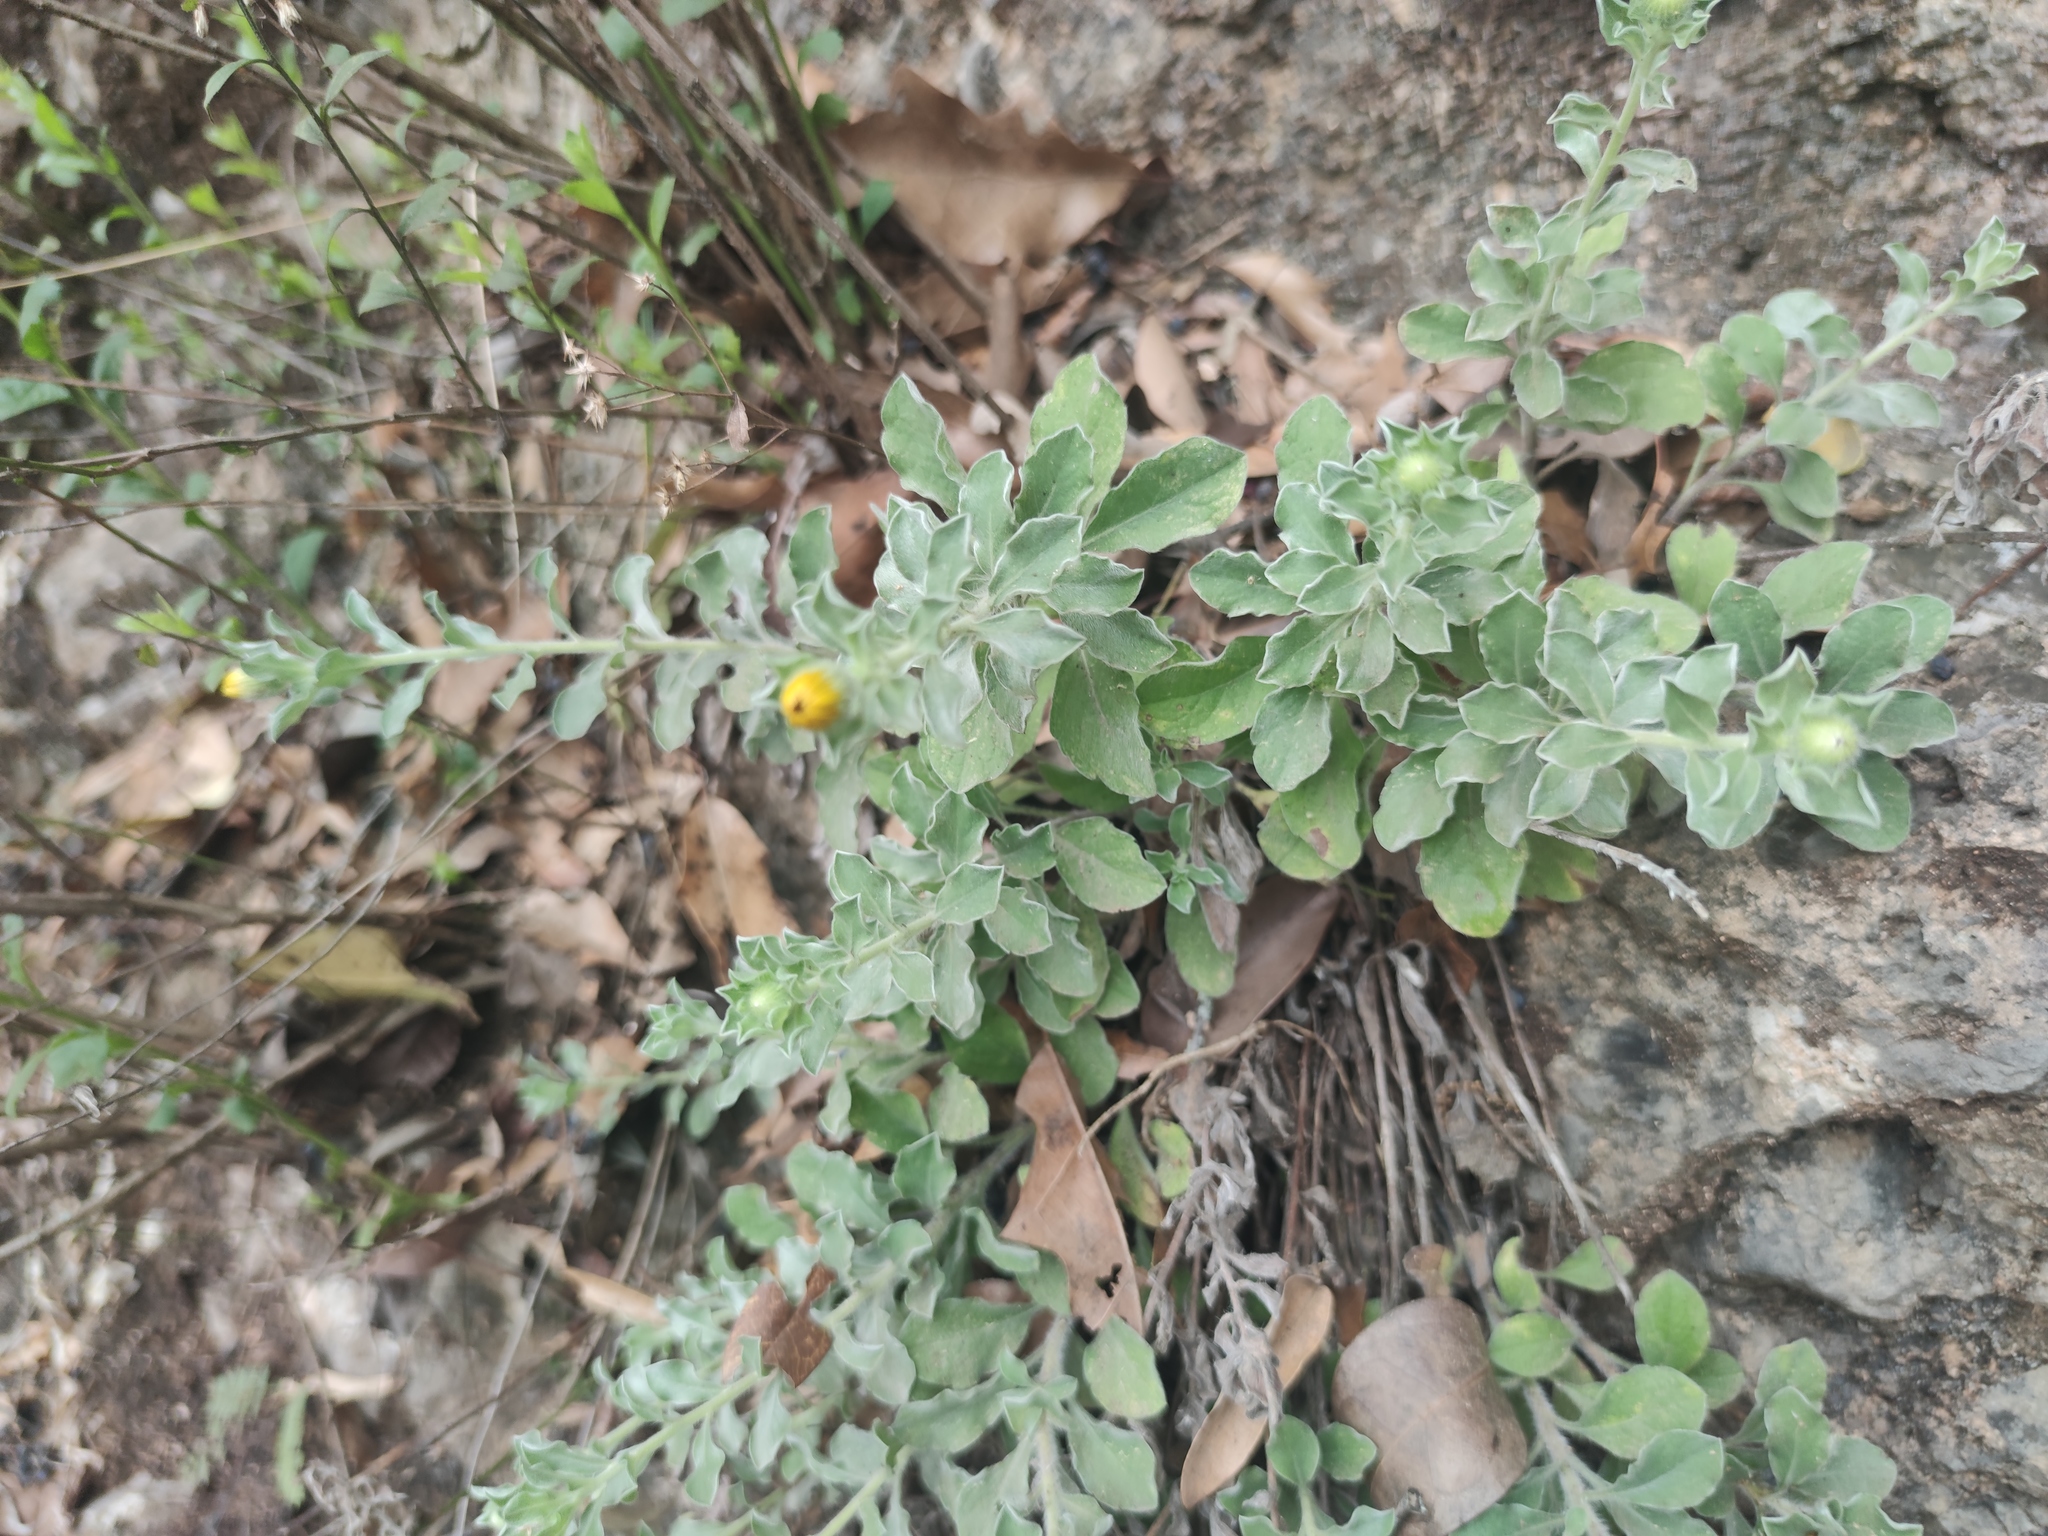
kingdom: Plantae
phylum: Tracheophyta
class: Magnoliopsida
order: Asterales
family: Asteraceae
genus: Heterotheca
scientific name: Heterotheca mucronata
